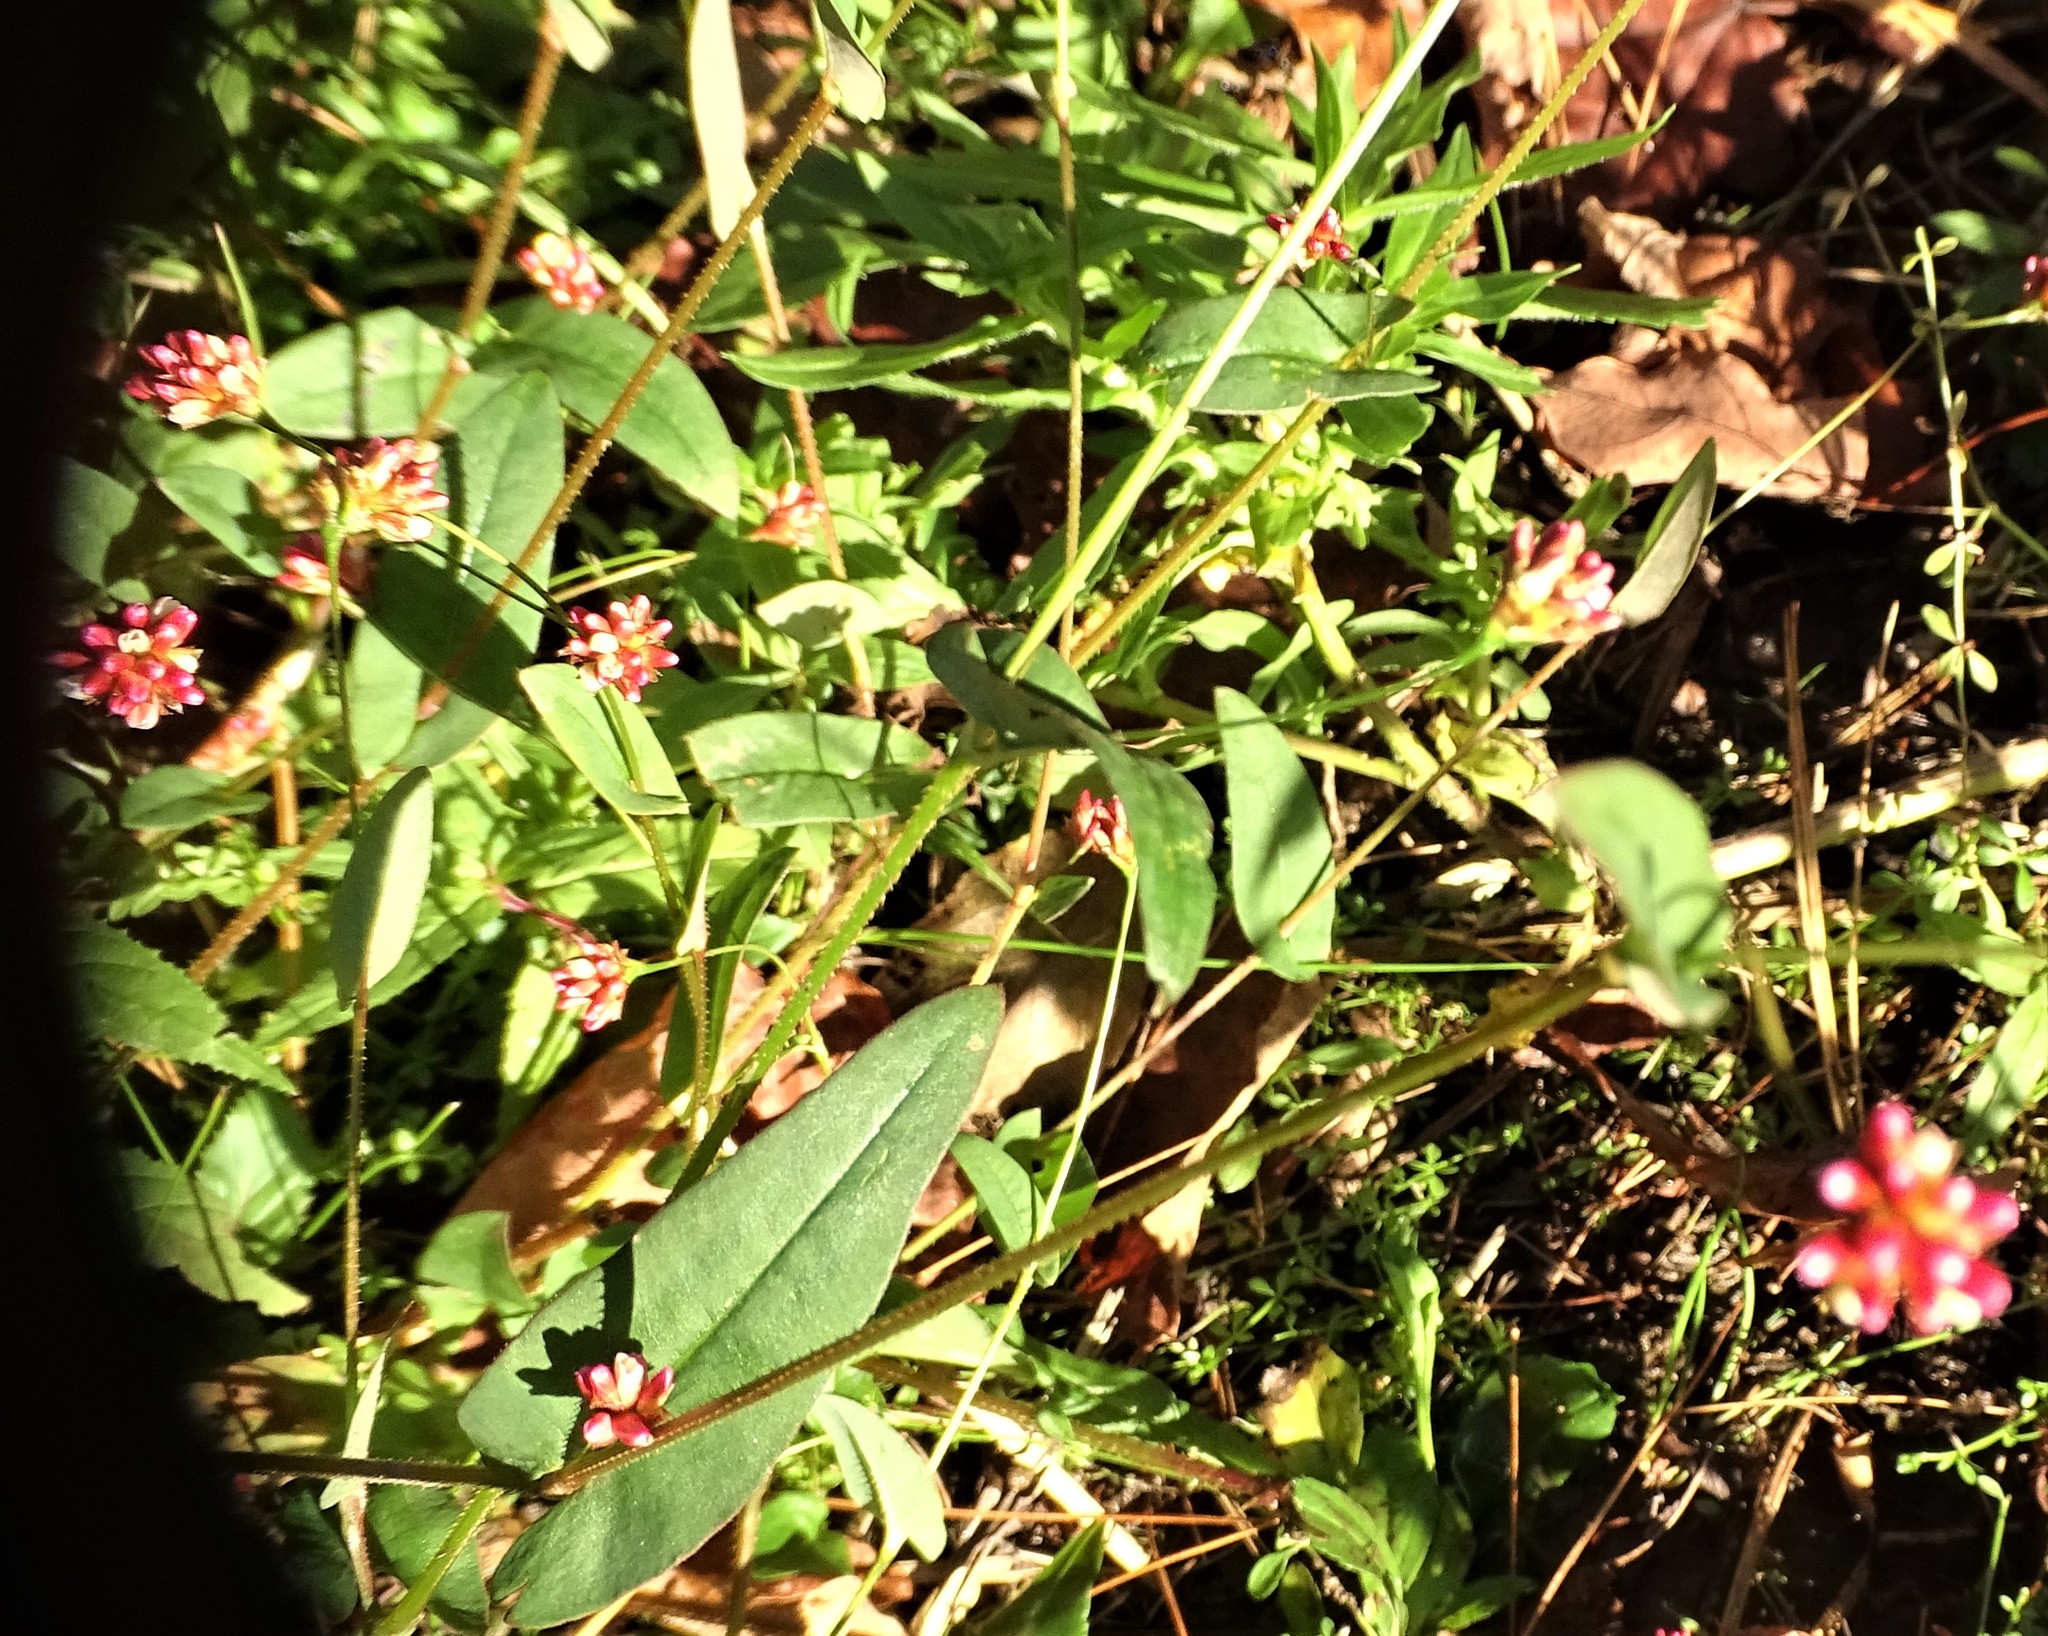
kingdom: Plantae
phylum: Tracheophyta
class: Magnoliopsida
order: Caryophyllales
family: Polygonaceae
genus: Persicaria
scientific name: Persicaria sagittata
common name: American tearthumb
